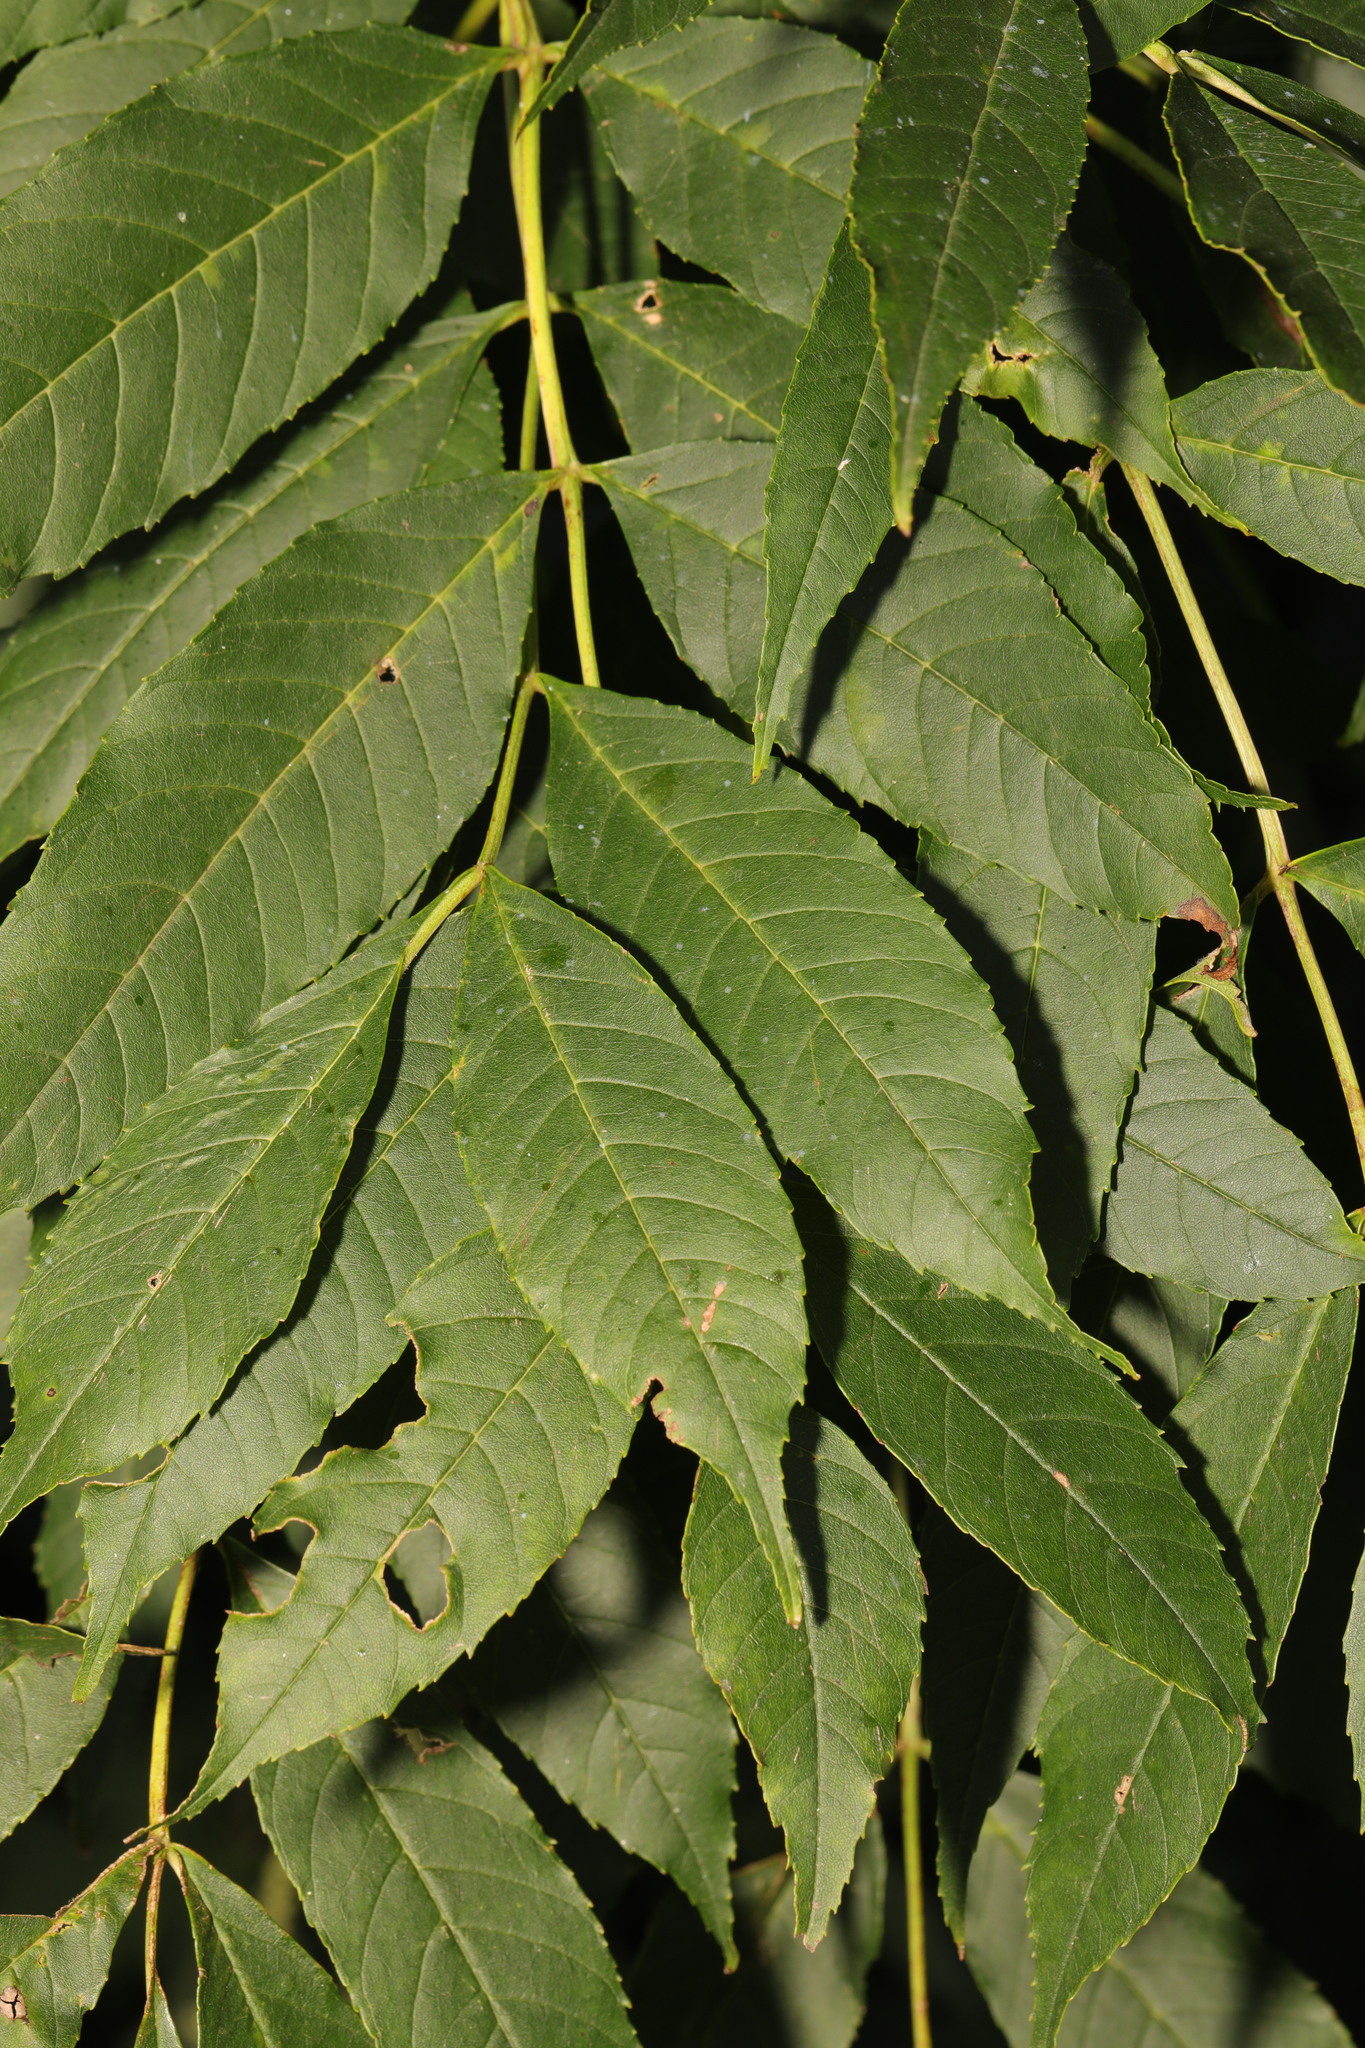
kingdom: Plantae
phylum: Tracheophyta
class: Magnoliopsida
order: Lamiales
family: Oleaceae
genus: Fraxinus
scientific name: Fraxinus excelsior
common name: European ash
